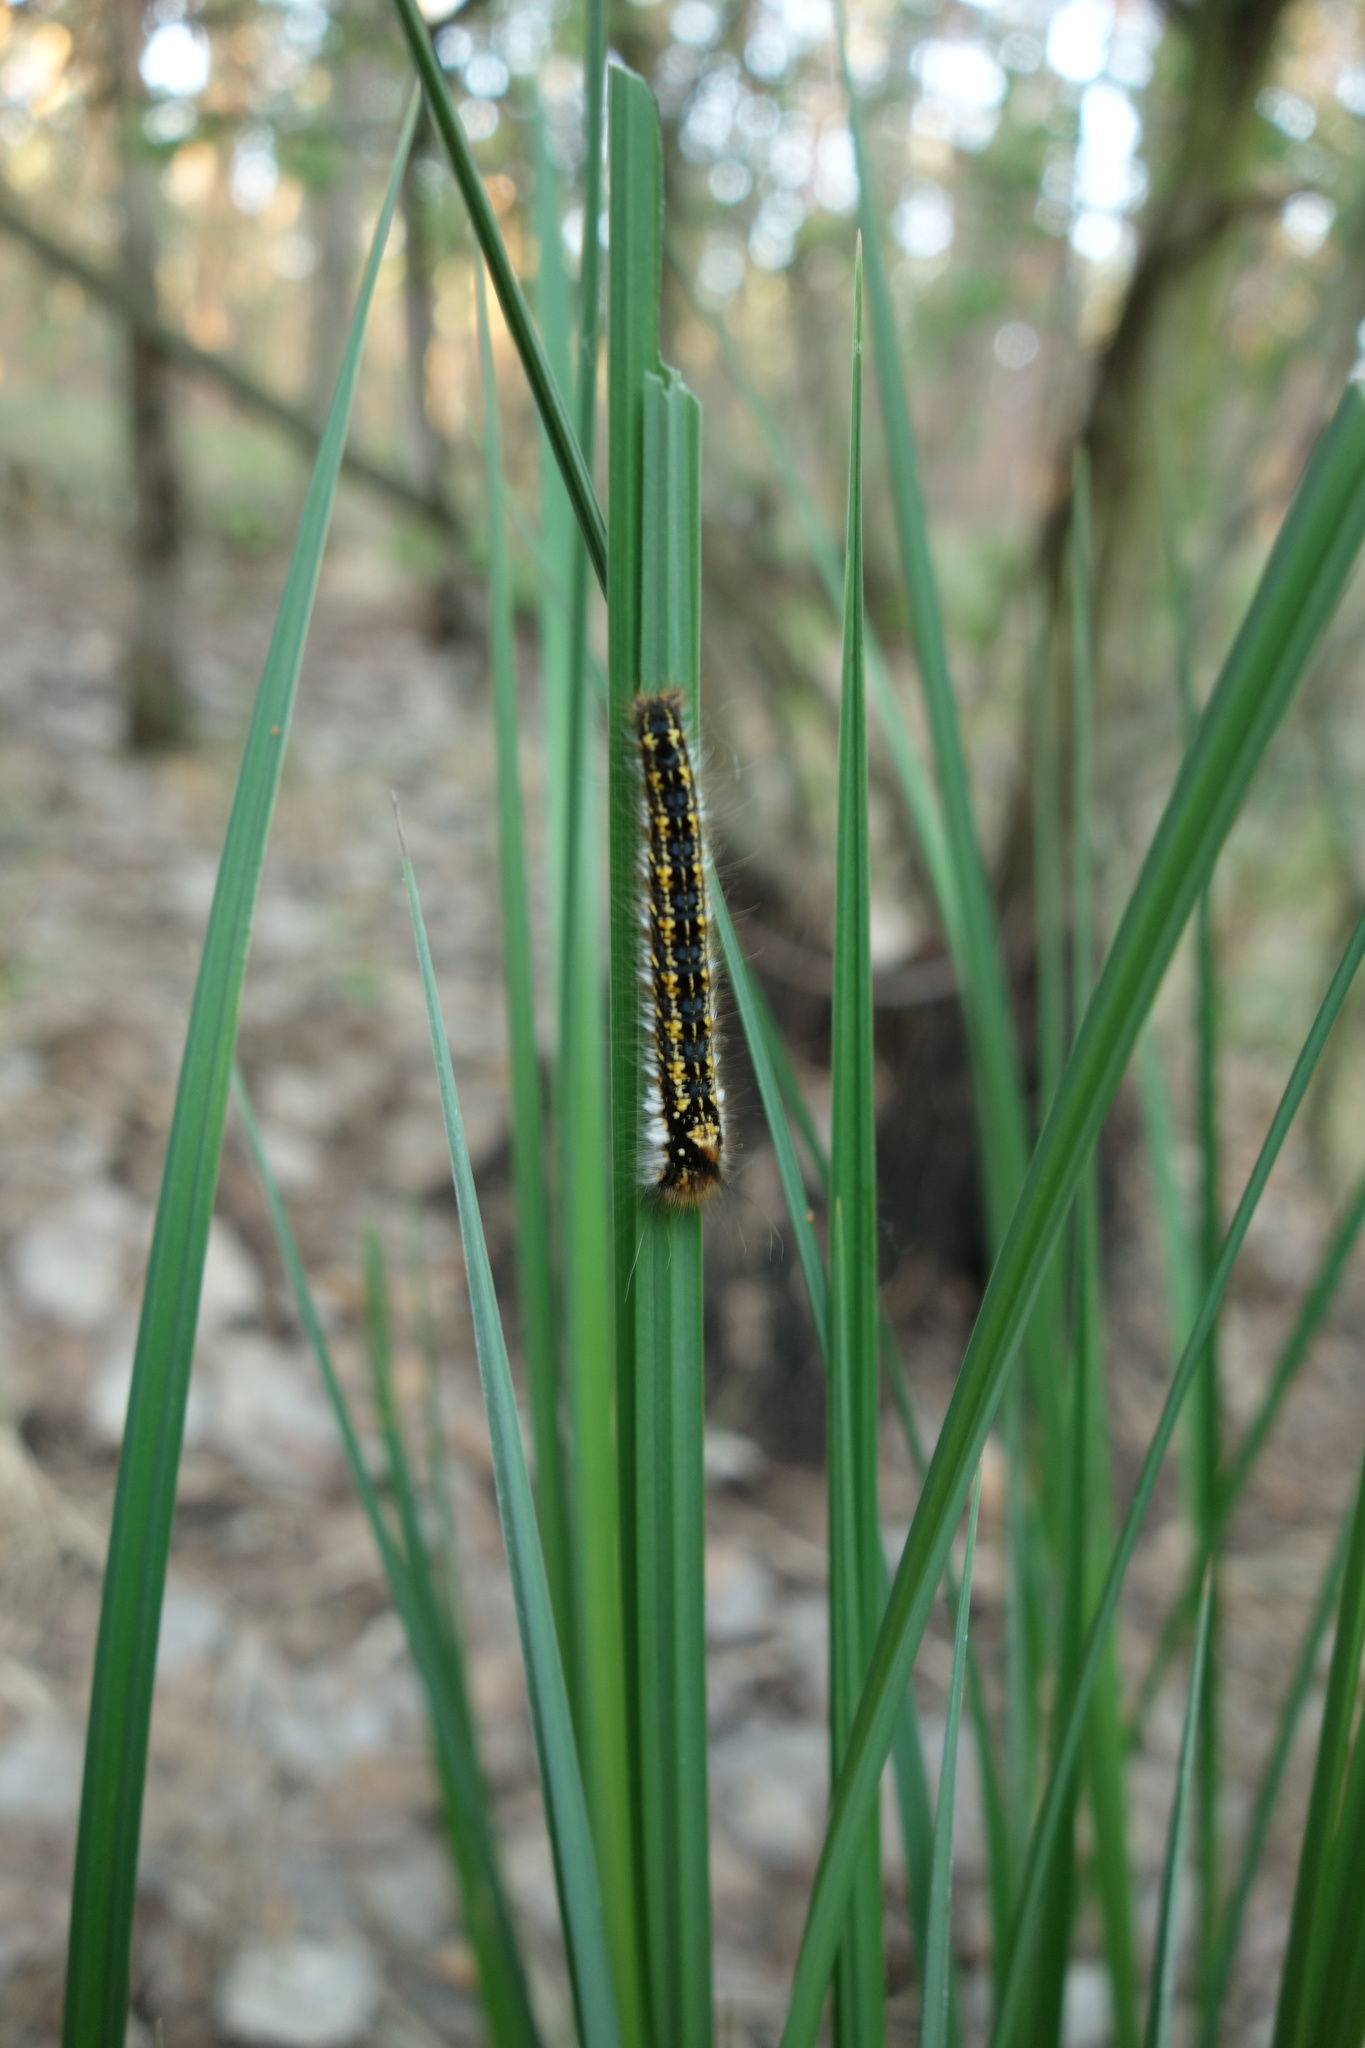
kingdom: Animalia
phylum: Arthropoda
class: Insecta
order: Lepidoptera
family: Lasiocampidae
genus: Euthrix
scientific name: Euthrix potatoria
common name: Drinker
